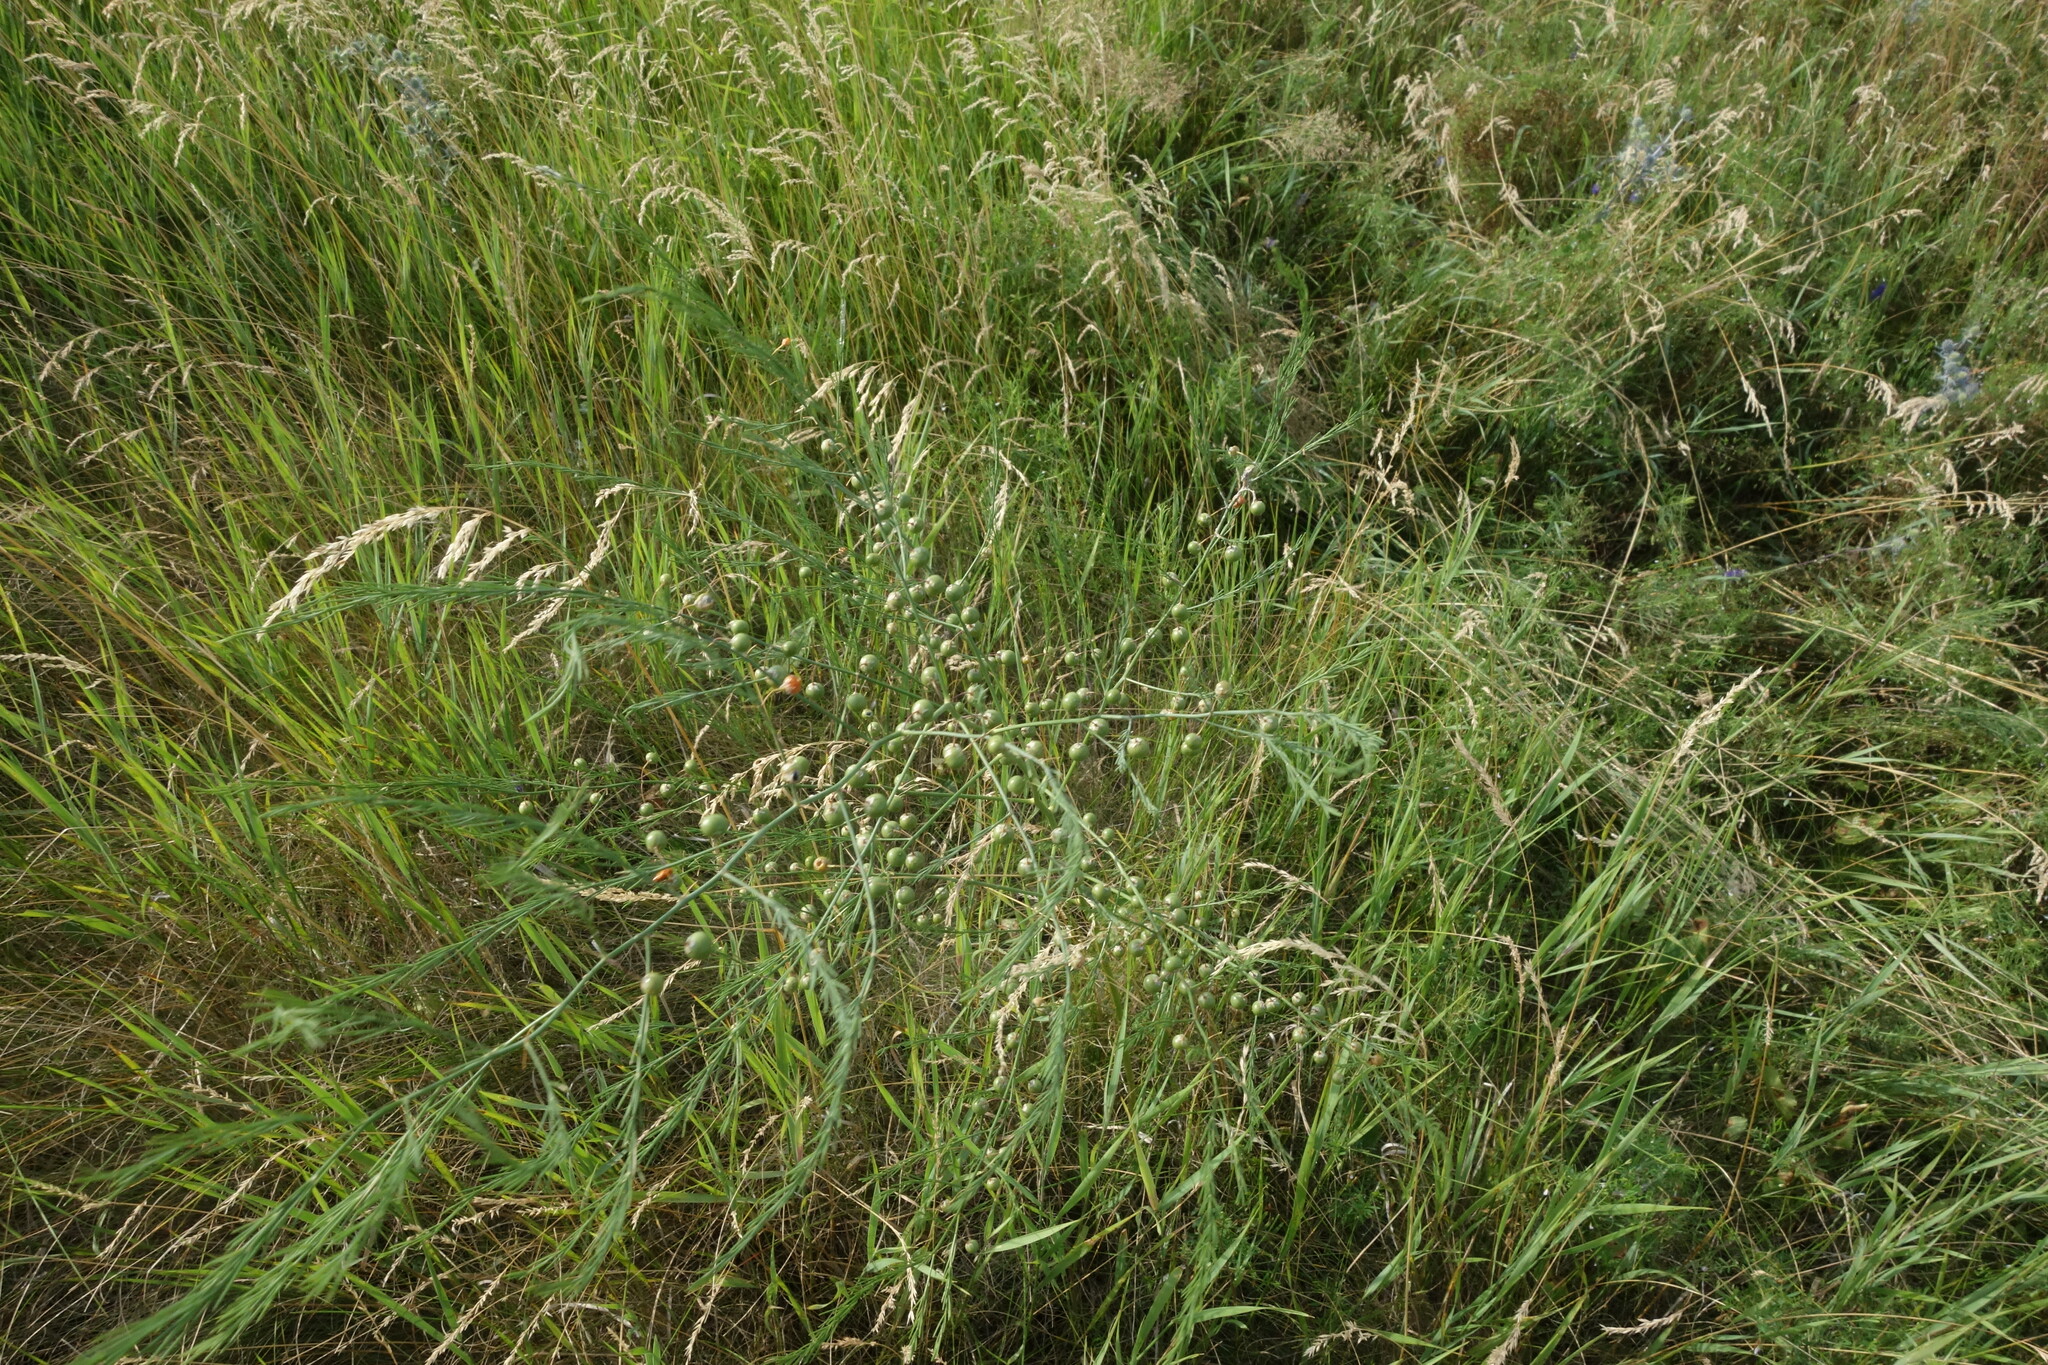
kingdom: Plantae
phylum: Tracheophyta
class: Liliopsida
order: Asparagales
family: Asparagaceae
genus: Asparagus
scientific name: Asparagus officinalis
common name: Garden asparagus
